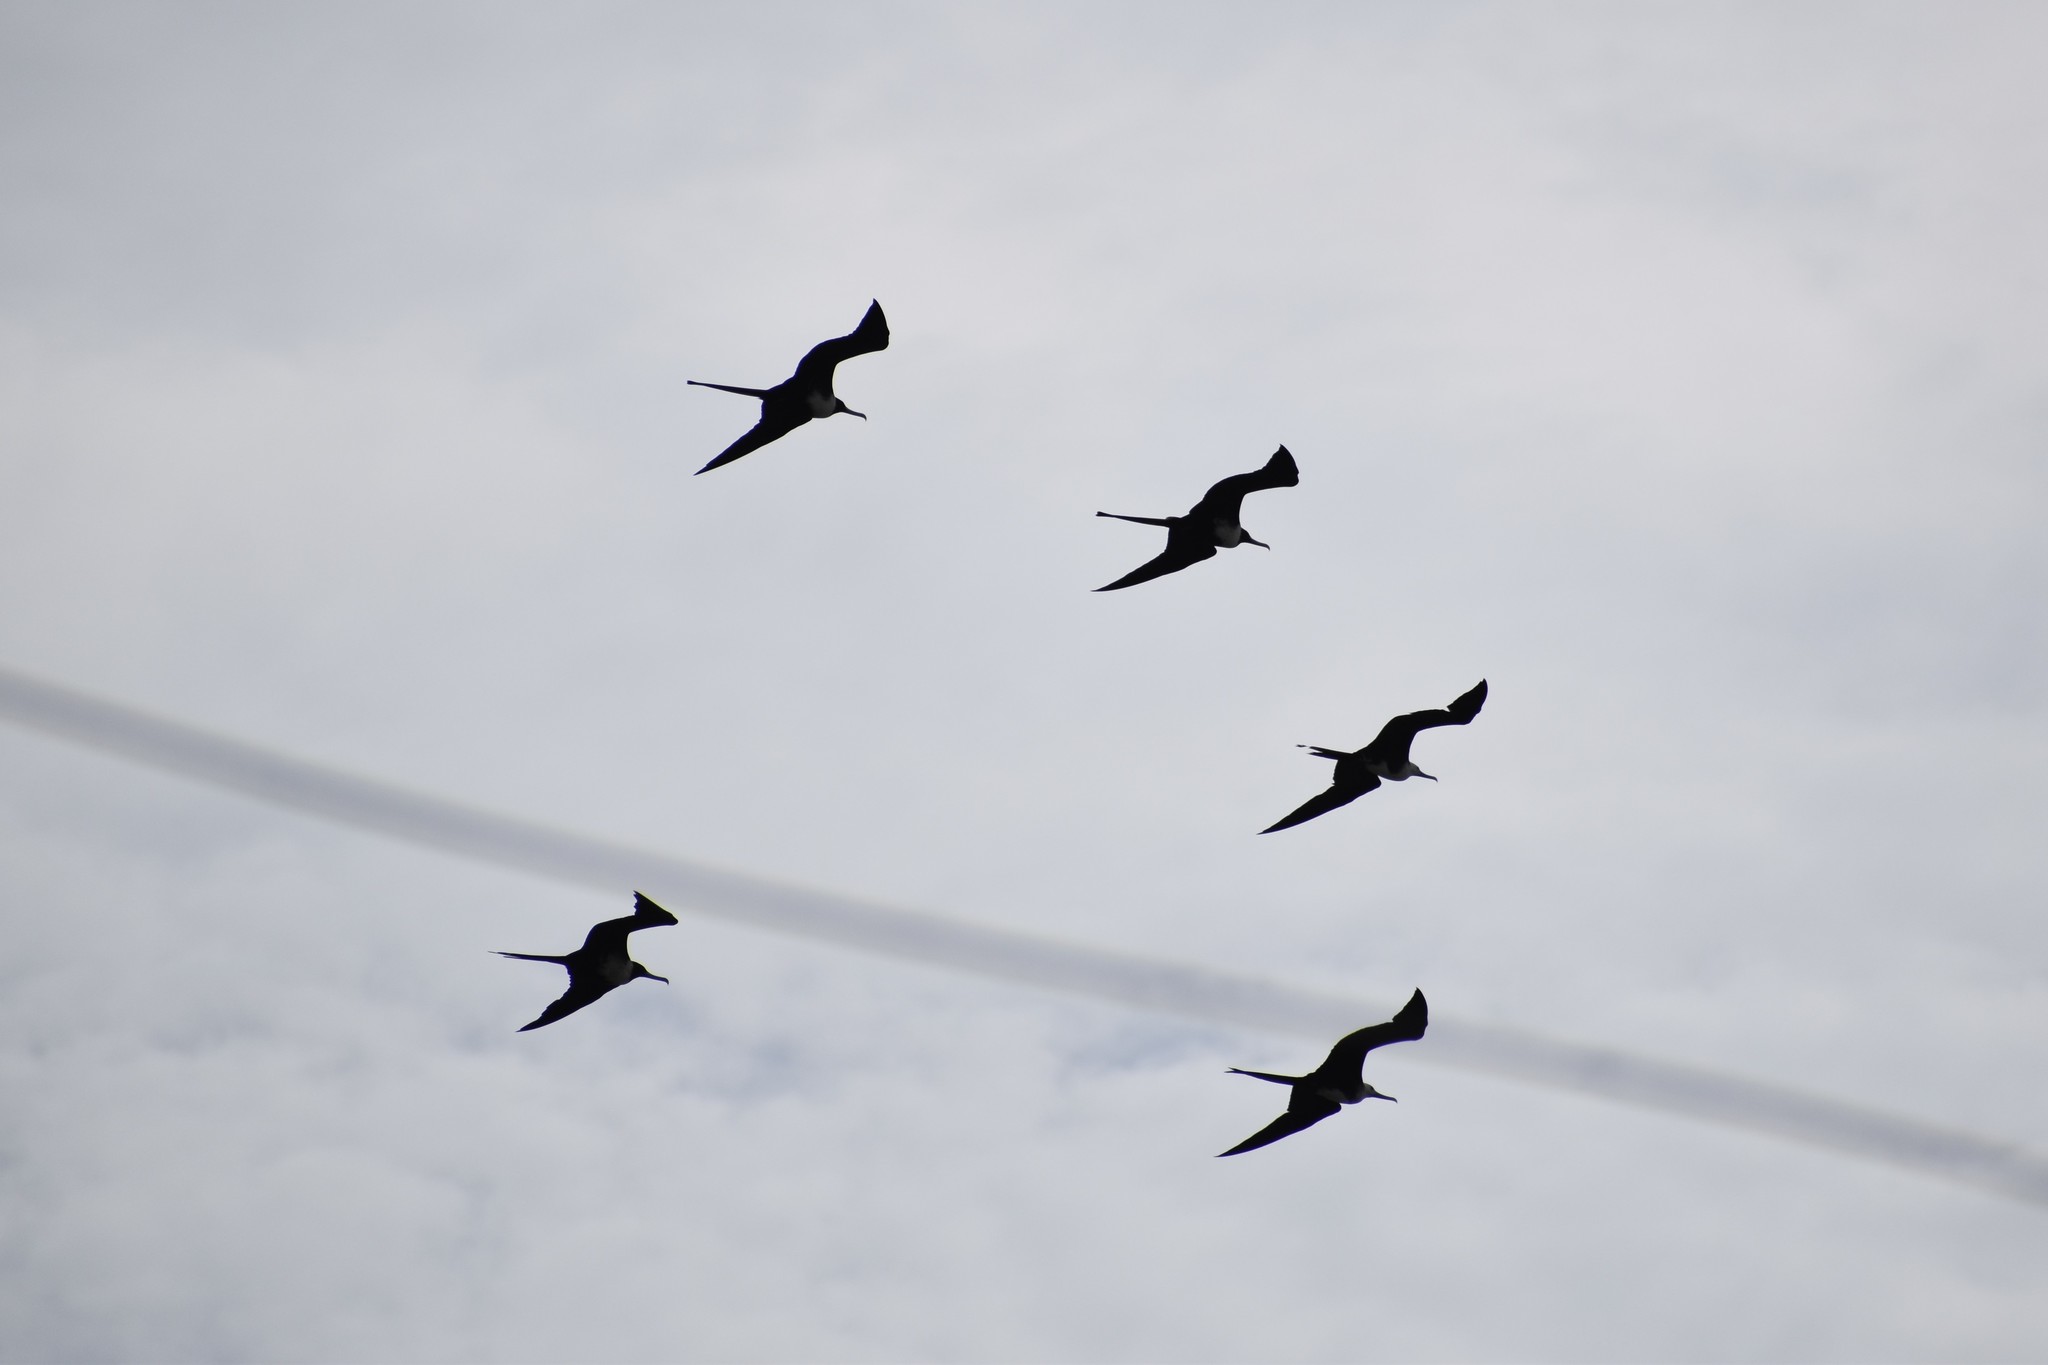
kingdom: Animalia
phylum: Chordata
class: Aves
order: Suliformes
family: Fregatidae
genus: Fregata
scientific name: Fregata magnificens
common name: Magnificent frigatebird
